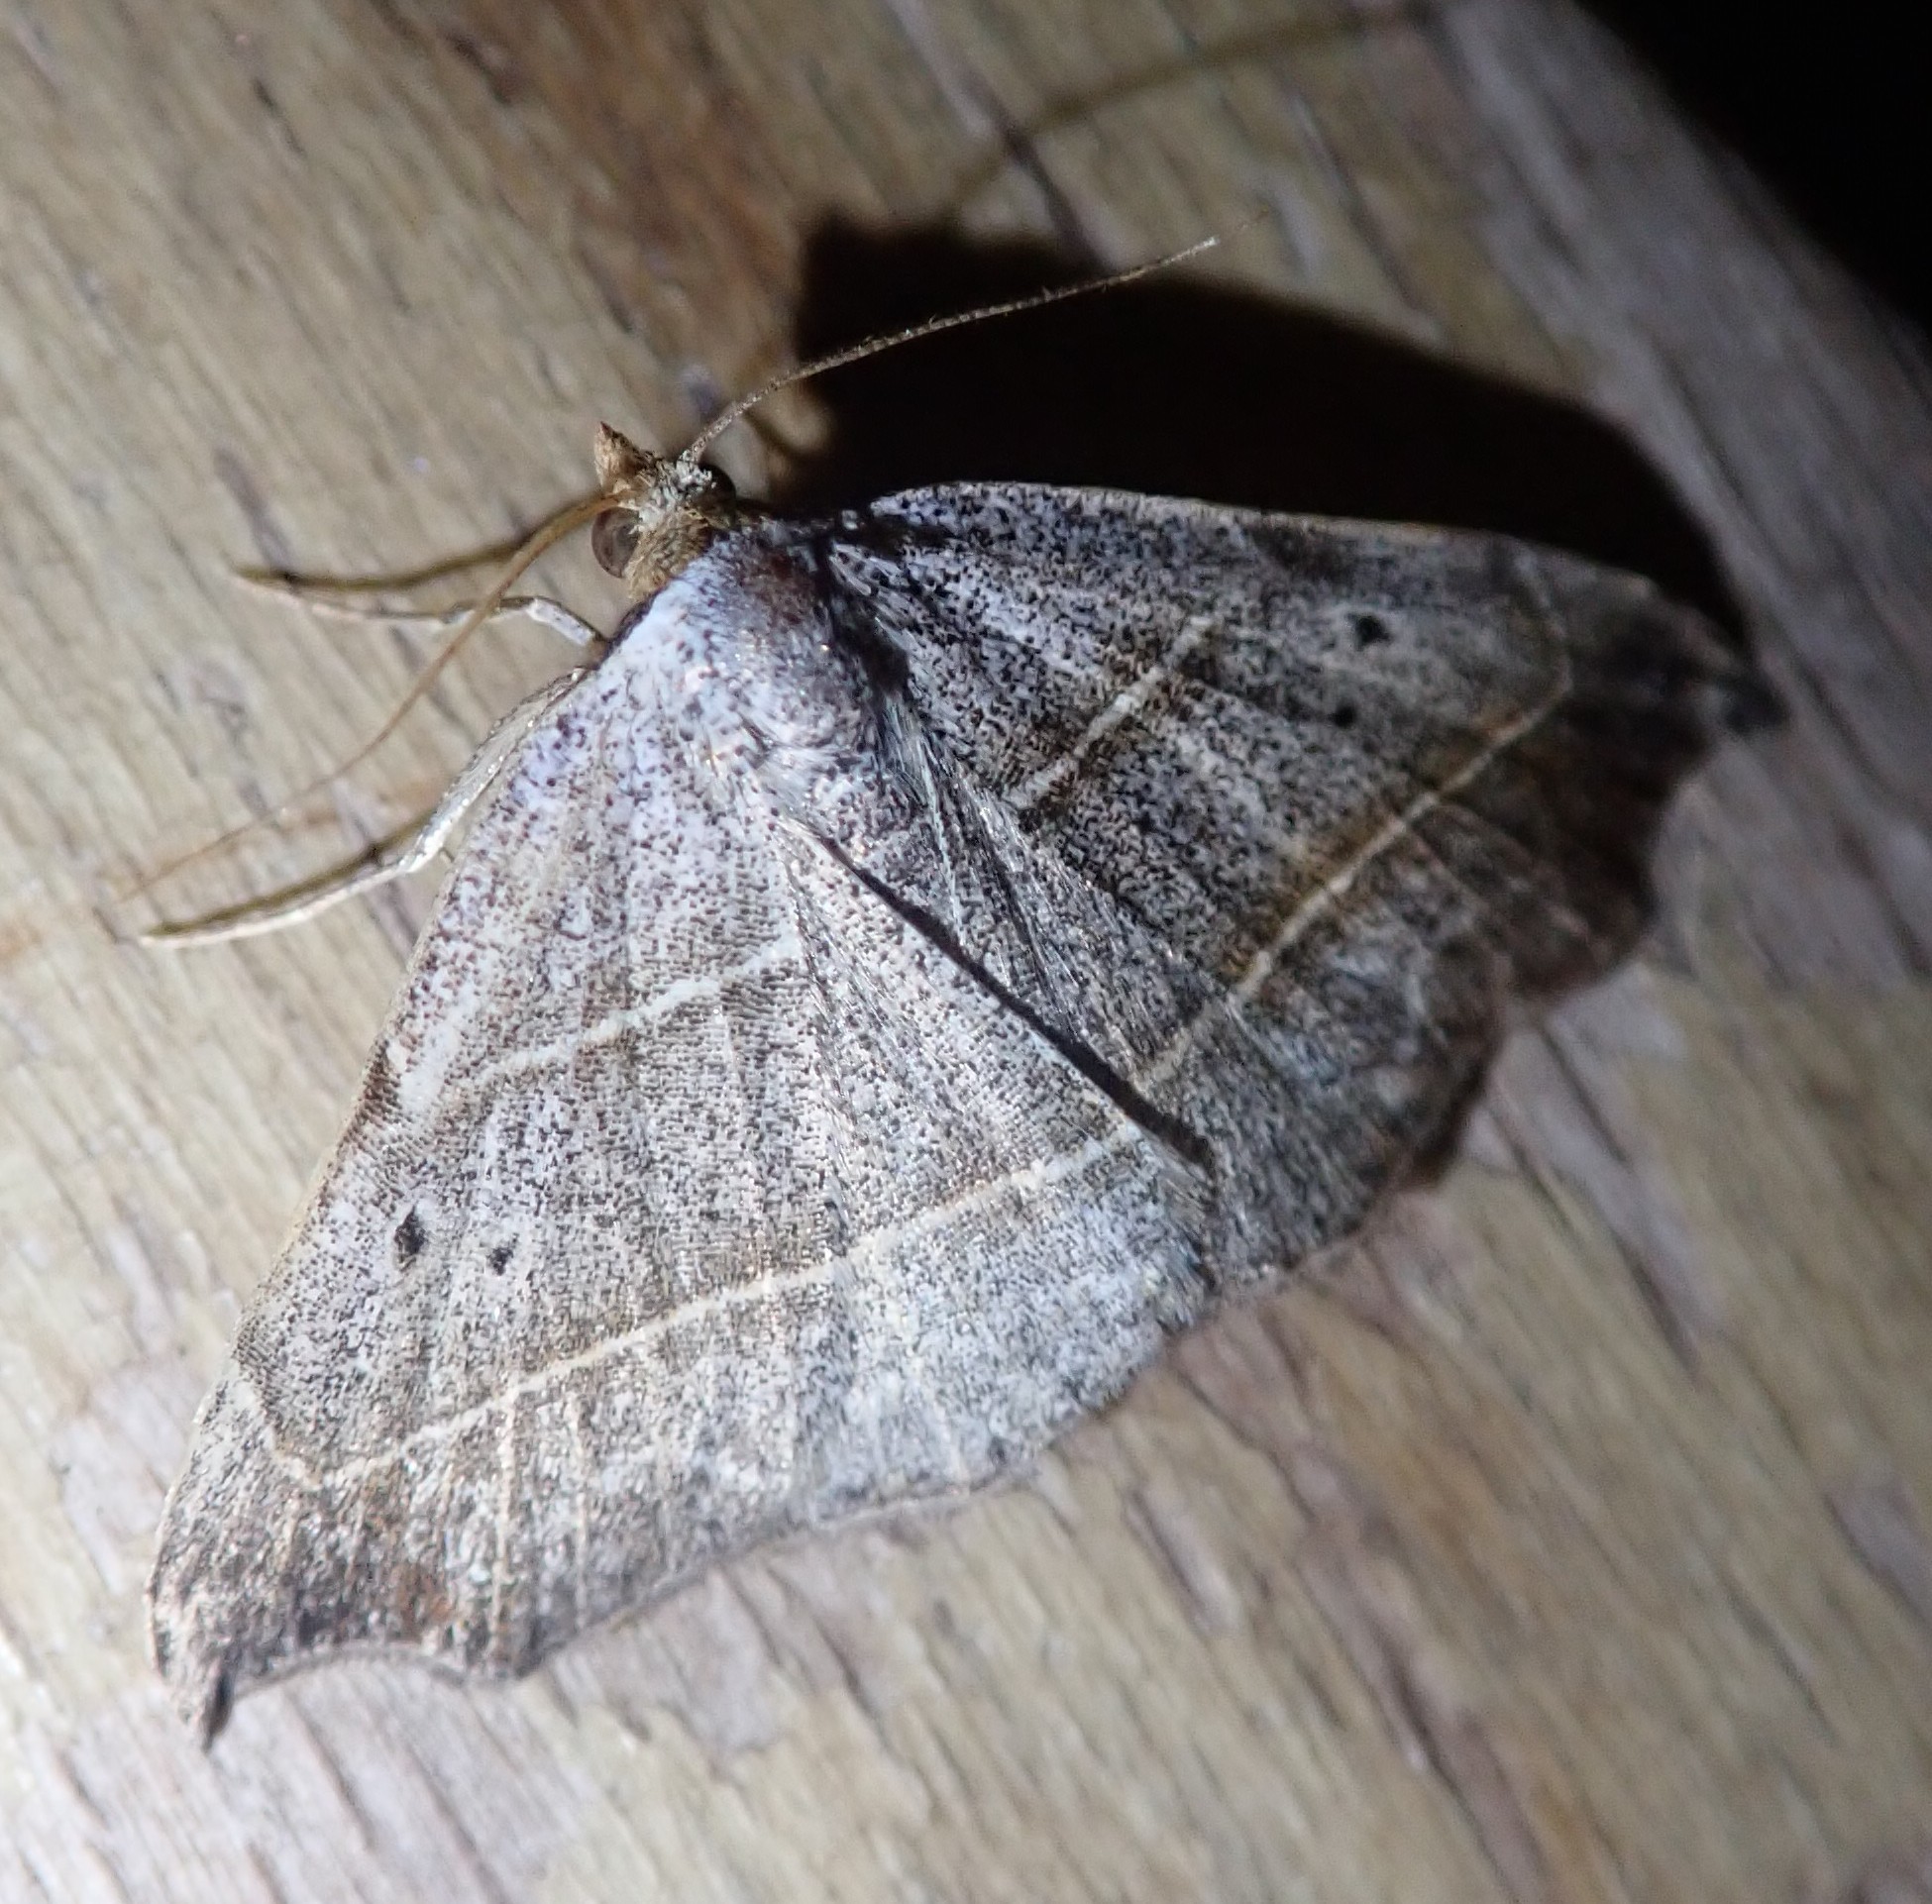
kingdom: Animalia
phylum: Arthropoda
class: Insecta
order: Lepidoptera
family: Erebidae
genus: Laspeyria
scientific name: Laspeyria flexula
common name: Beautiful hook-tip
